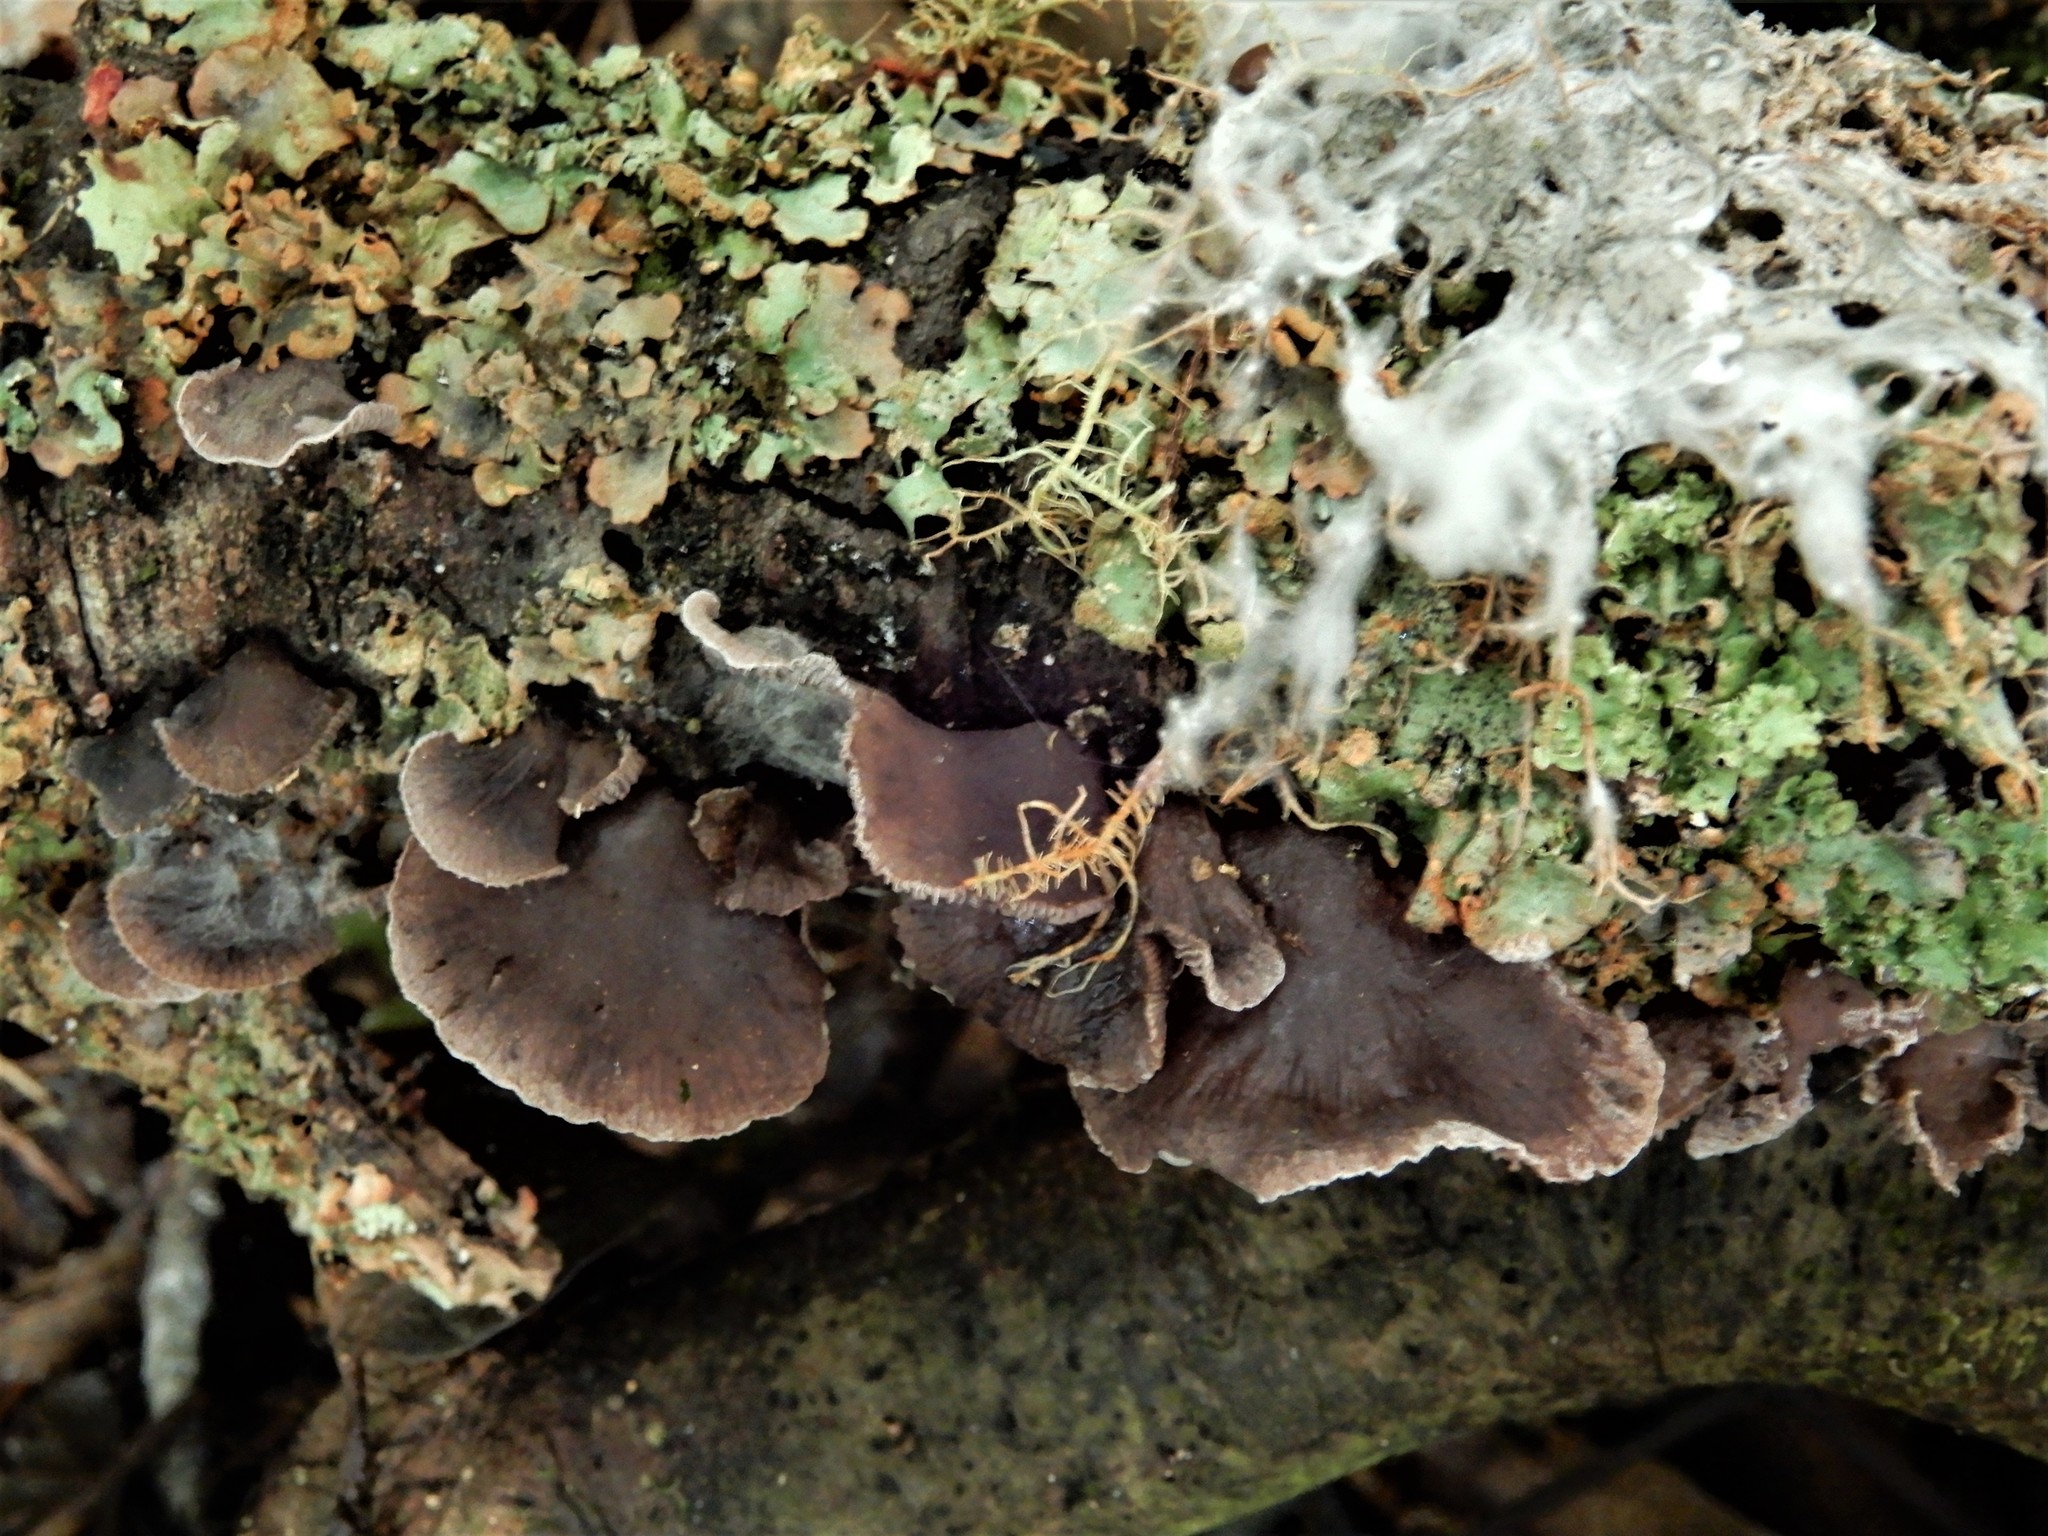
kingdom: Fungi
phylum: Basidiomycota
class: Agaricomycetes
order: Agaricales
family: Pleurotaceae
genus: Resupinatus
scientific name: Resupinatus vinosolividus
